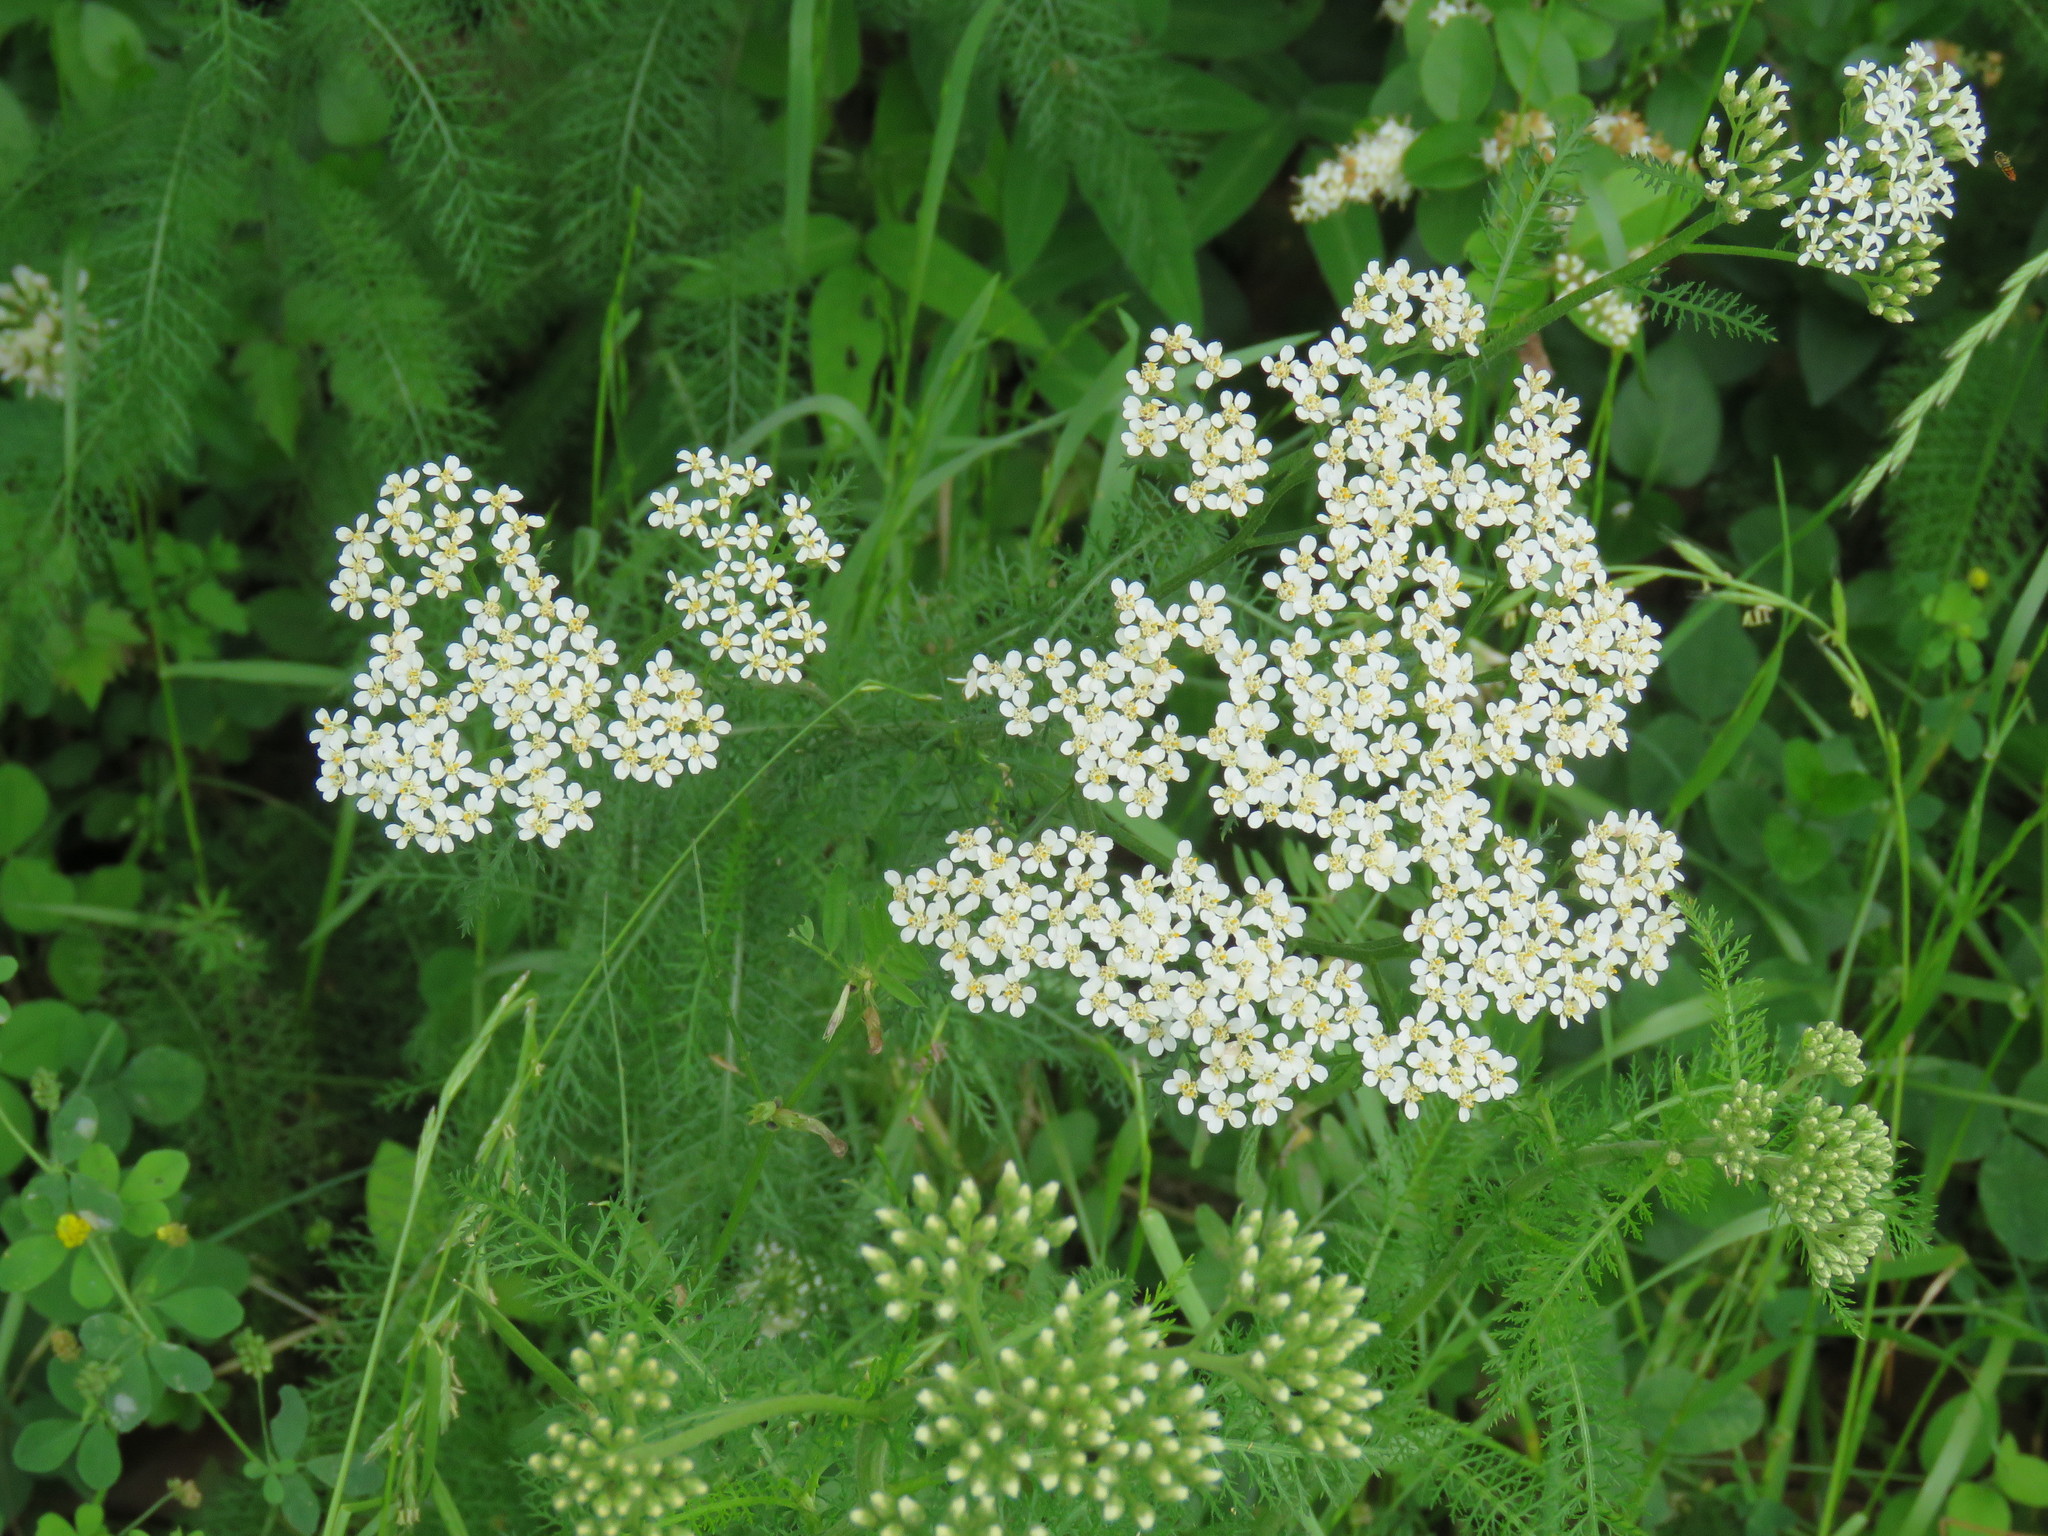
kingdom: Plantae
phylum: Tracheophyta
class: Magnoliopsida
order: Asterales
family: Asteraceae
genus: Achillea
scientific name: Achillea millefolium
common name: Yarrow
